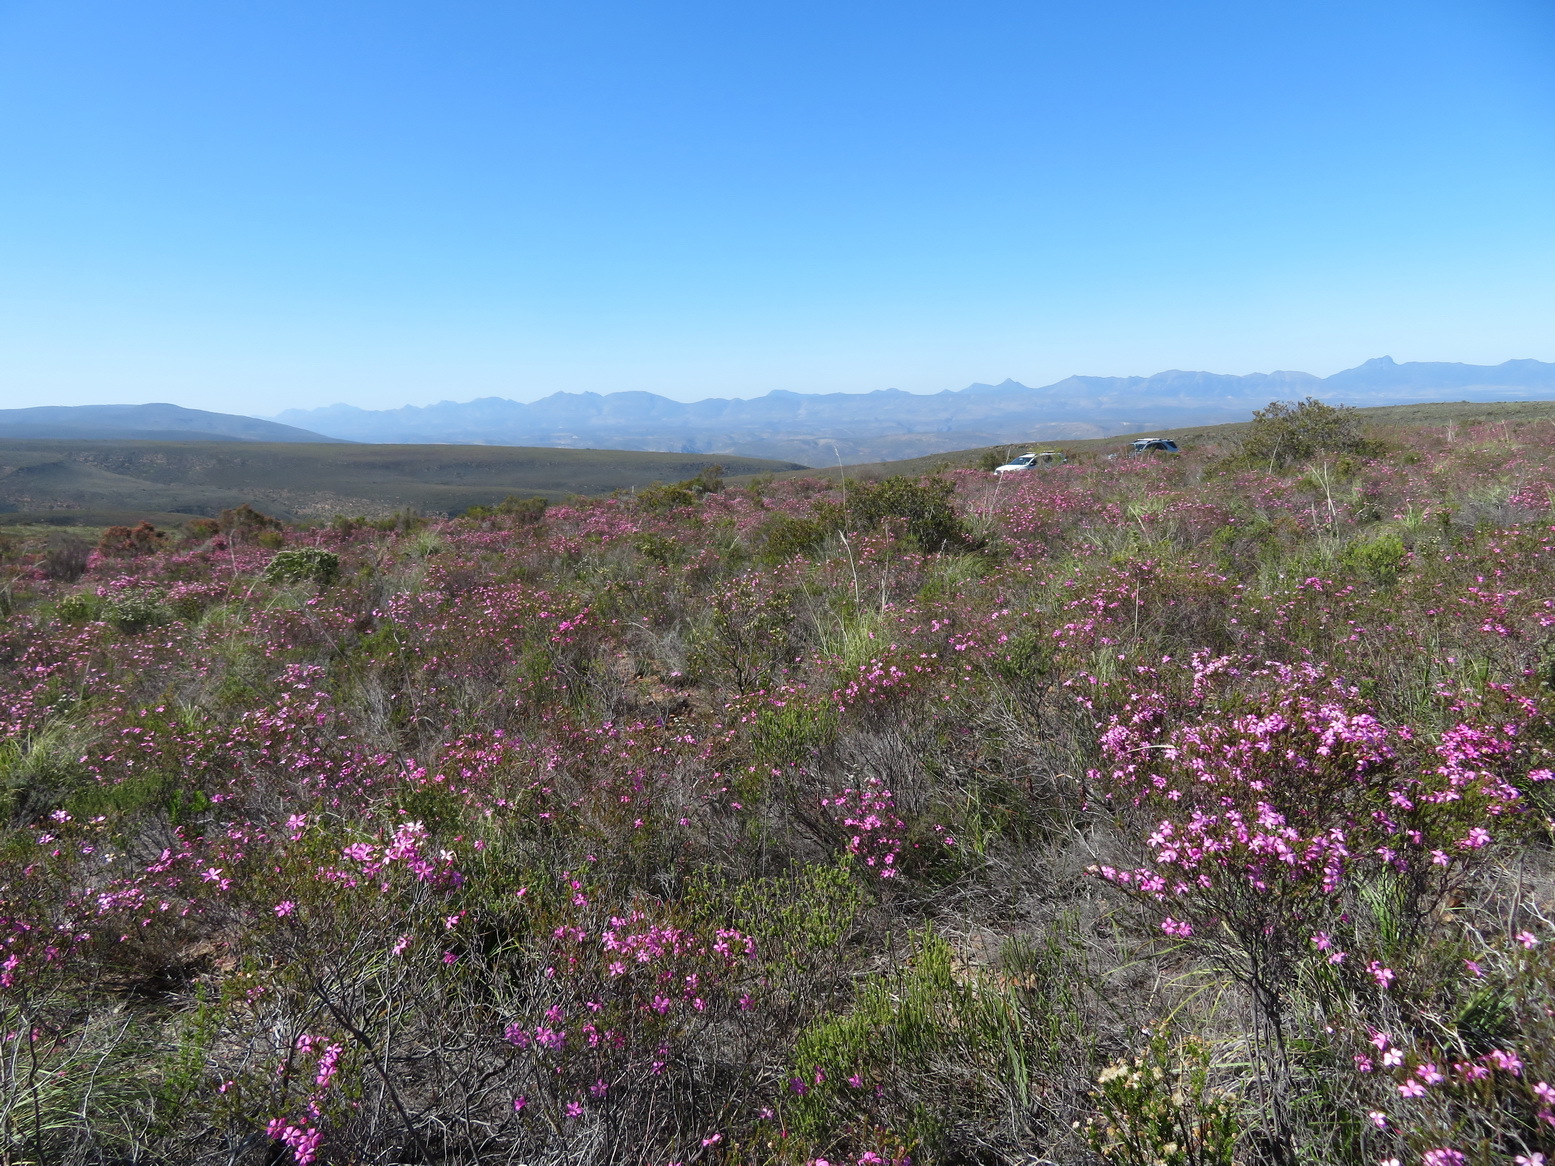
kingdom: Plantae
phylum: Tracheophyta
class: Magnoliopsida
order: Sapindales
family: Rutaceae
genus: Acmadenia
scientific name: Acmadenia sheilae
